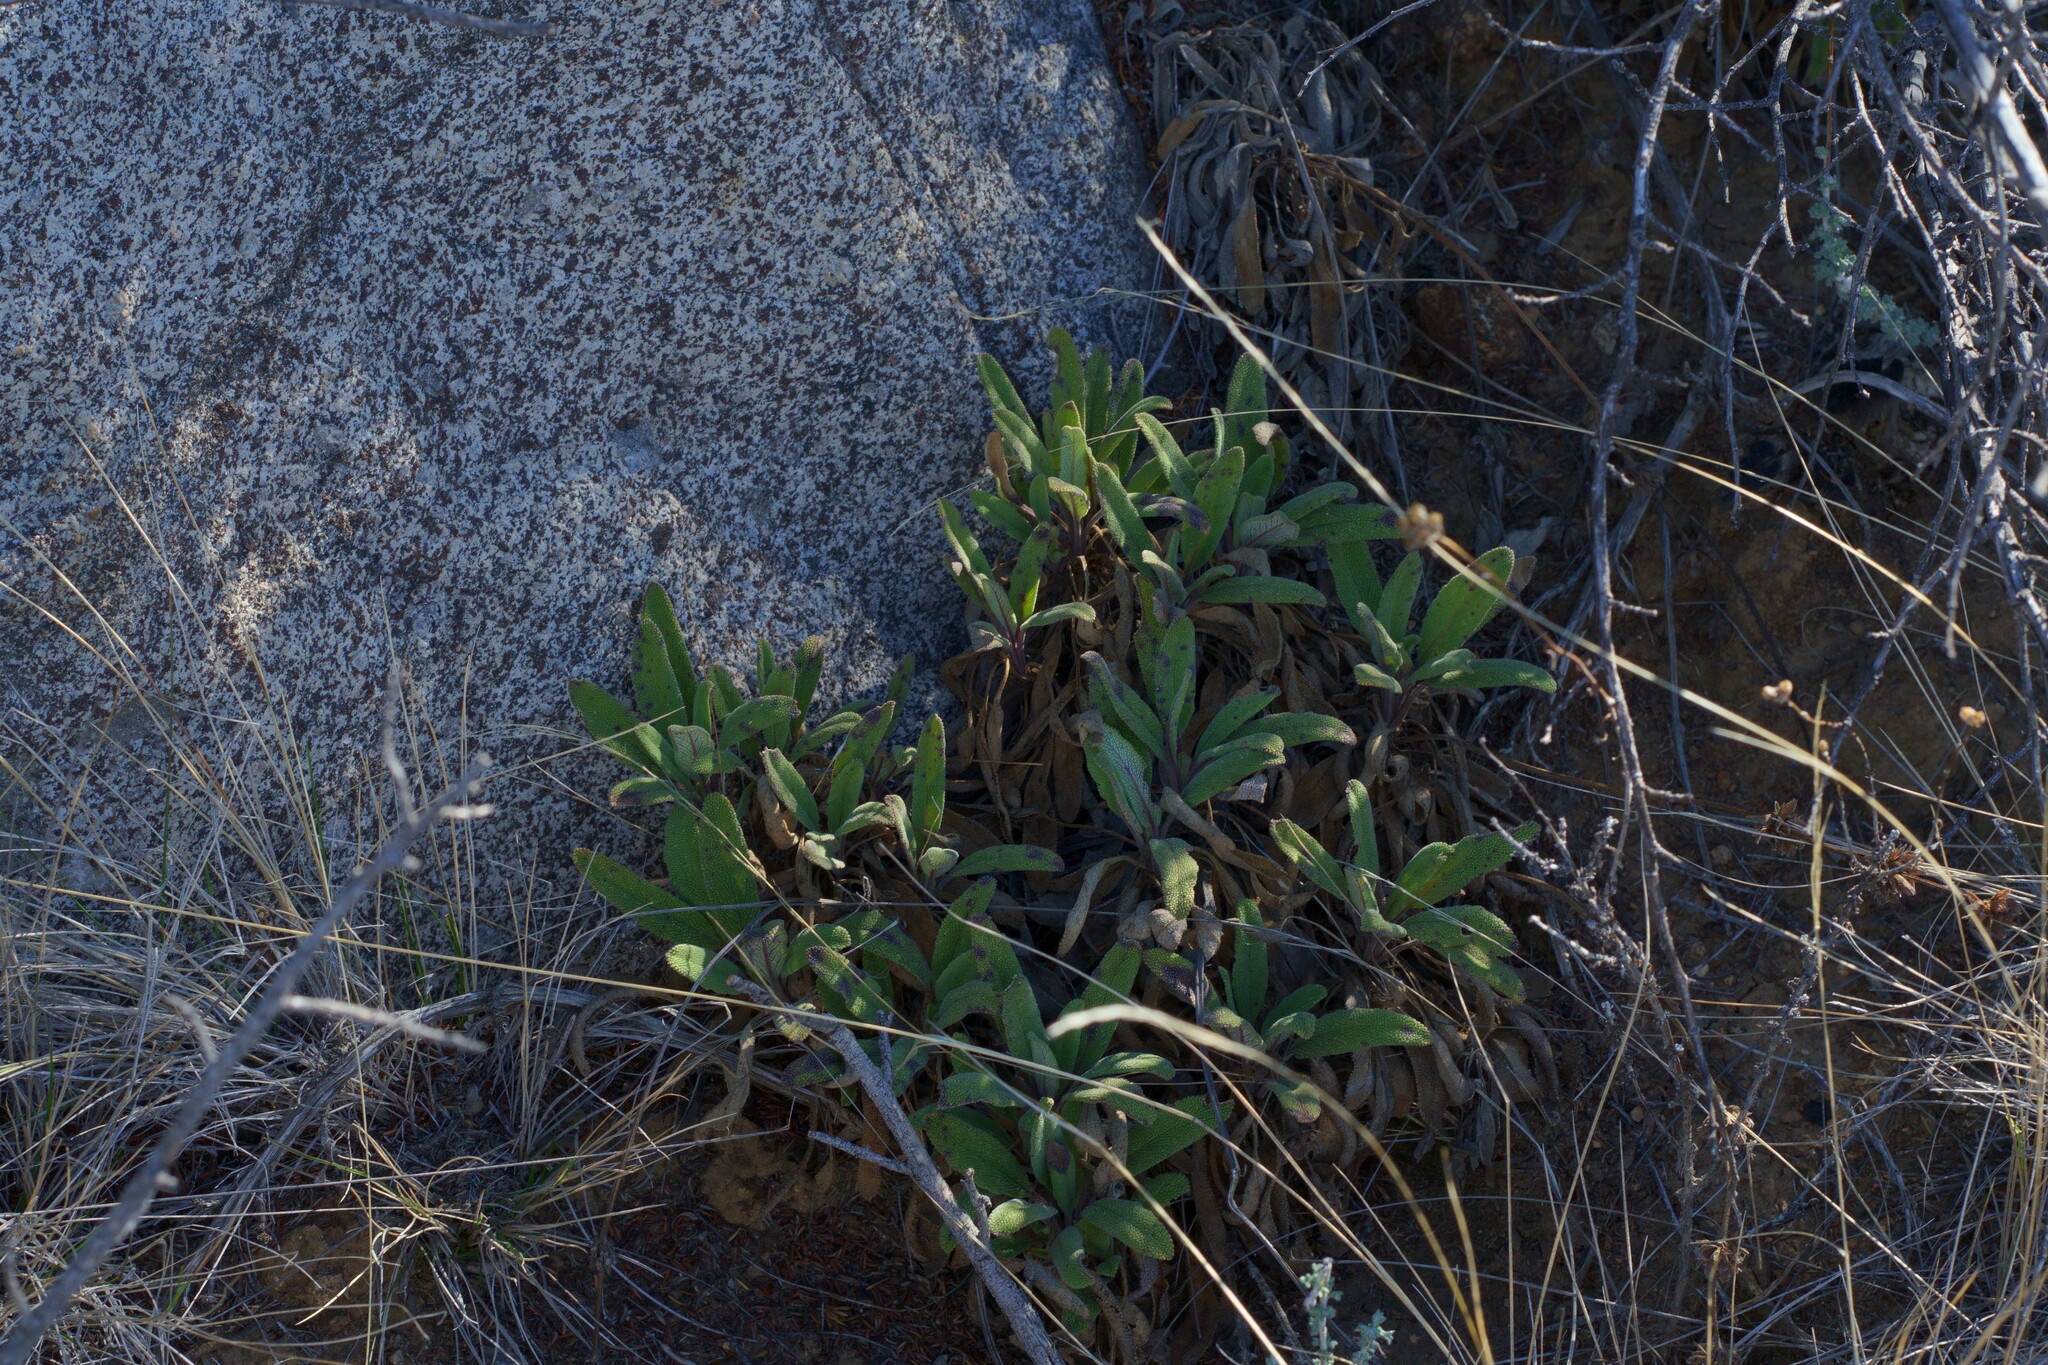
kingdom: Plantae
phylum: Tracheophyta
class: Magnoliopsida
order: Lamiales
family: Lamiaceae
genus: Salvia
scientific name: Salvia sonomensis
